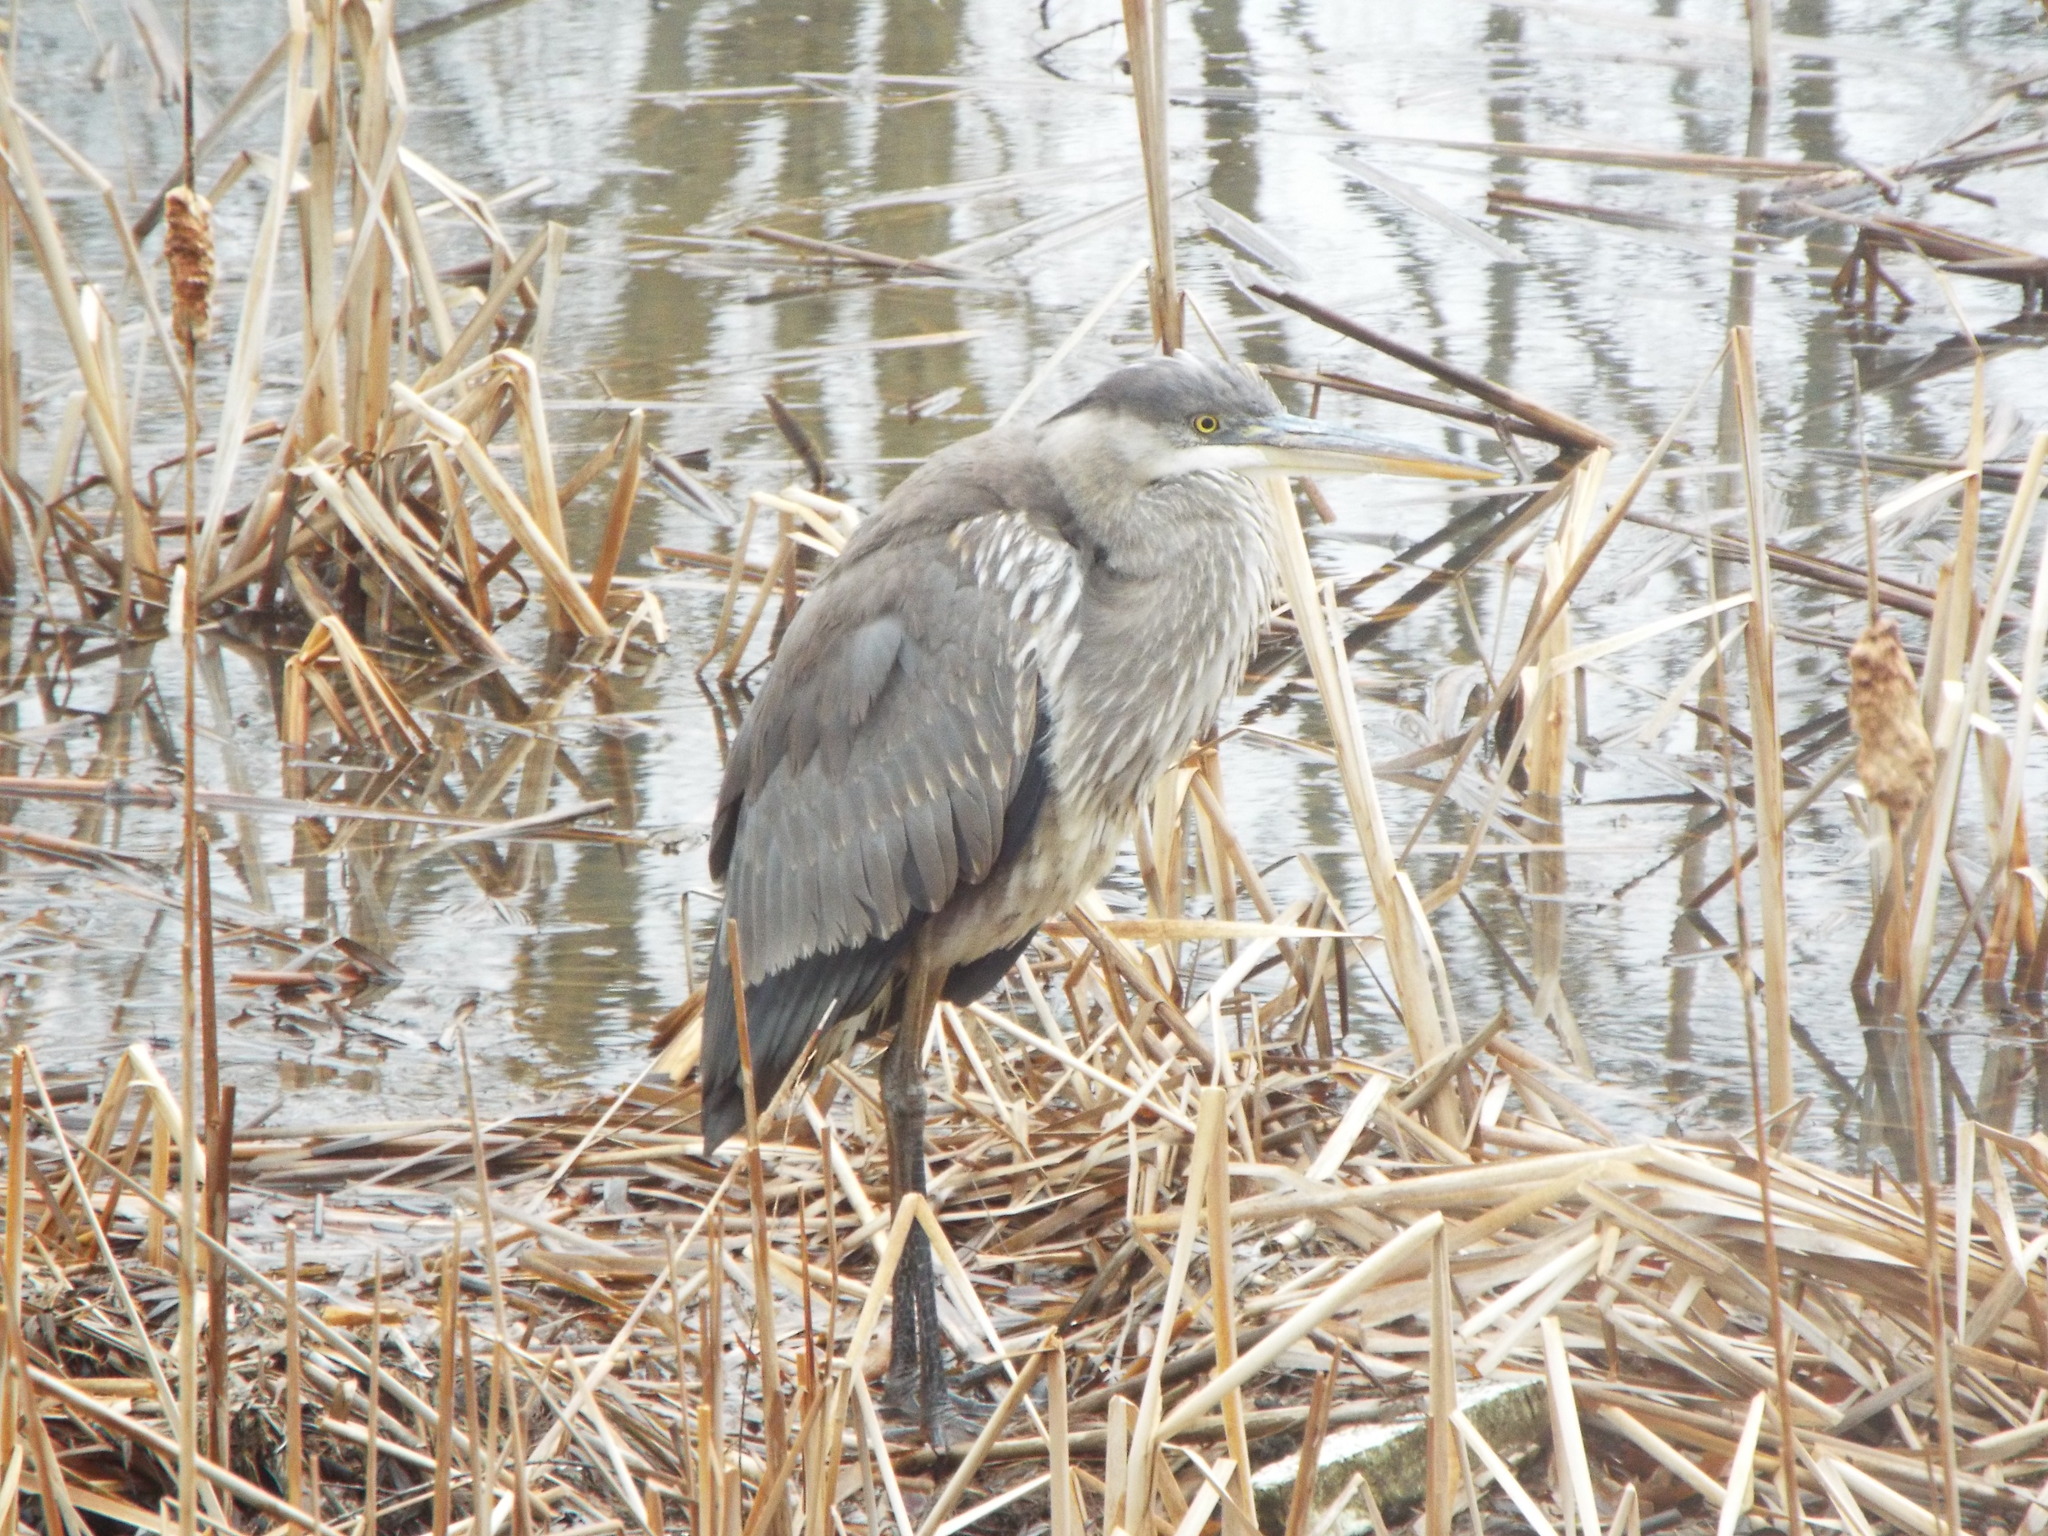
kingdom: Animalia
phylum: Chordata
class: Aves
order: Pelecaniformes
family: Ardeidae
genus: Ardea
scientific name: Ardea herodias
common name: Great blue heron
